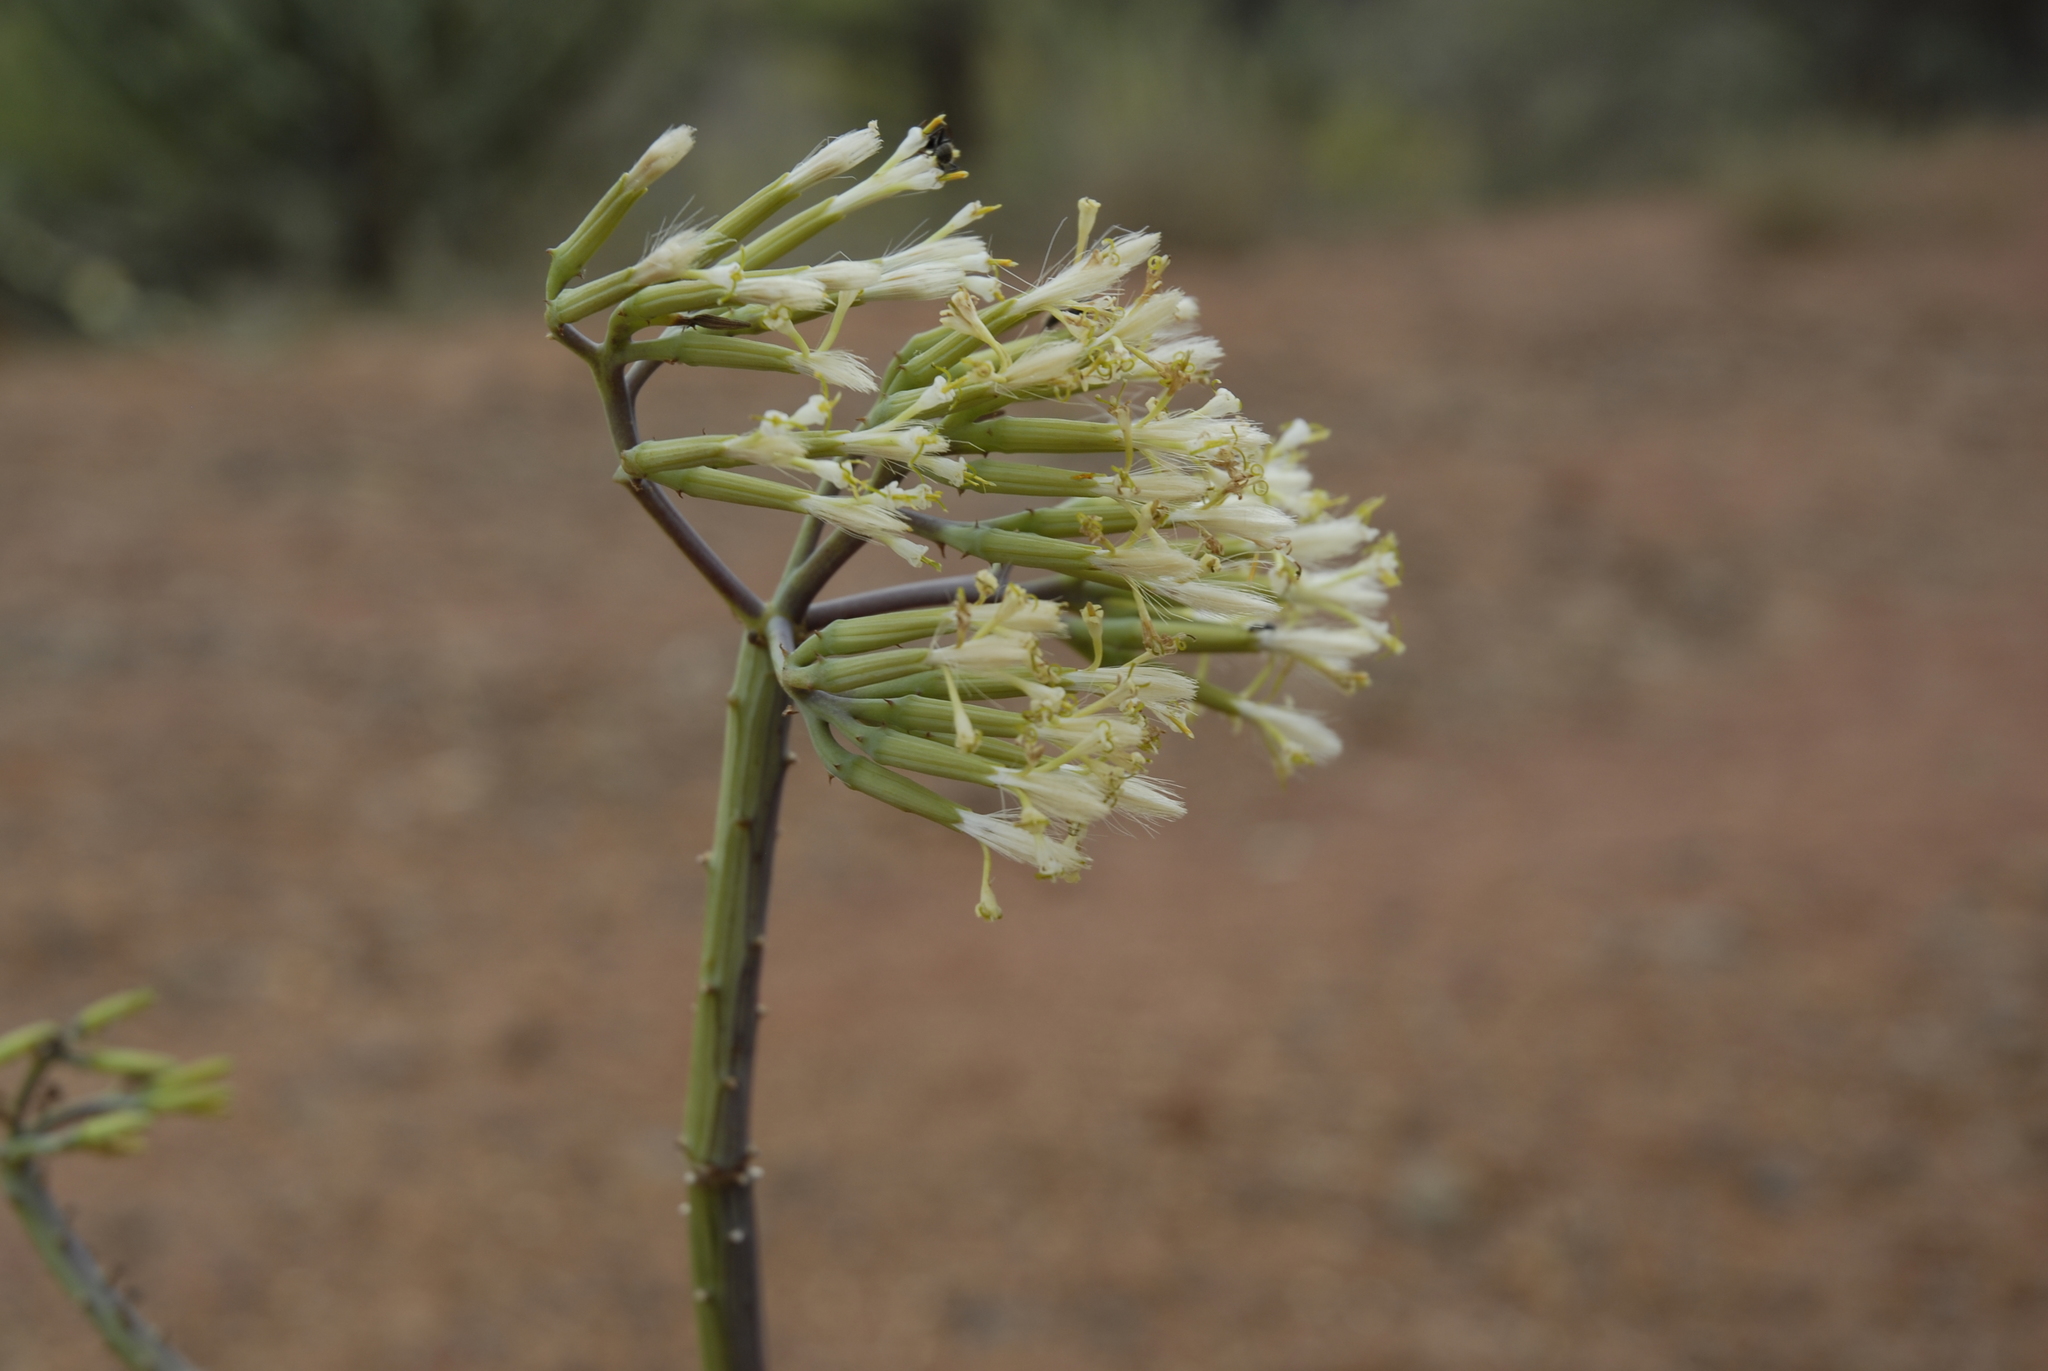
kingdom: Plantae
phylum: Tracheophyta
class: Magnoliopsida
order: Asterales
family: Asteraceae
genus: Kleinia
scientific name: Kleinia odora
